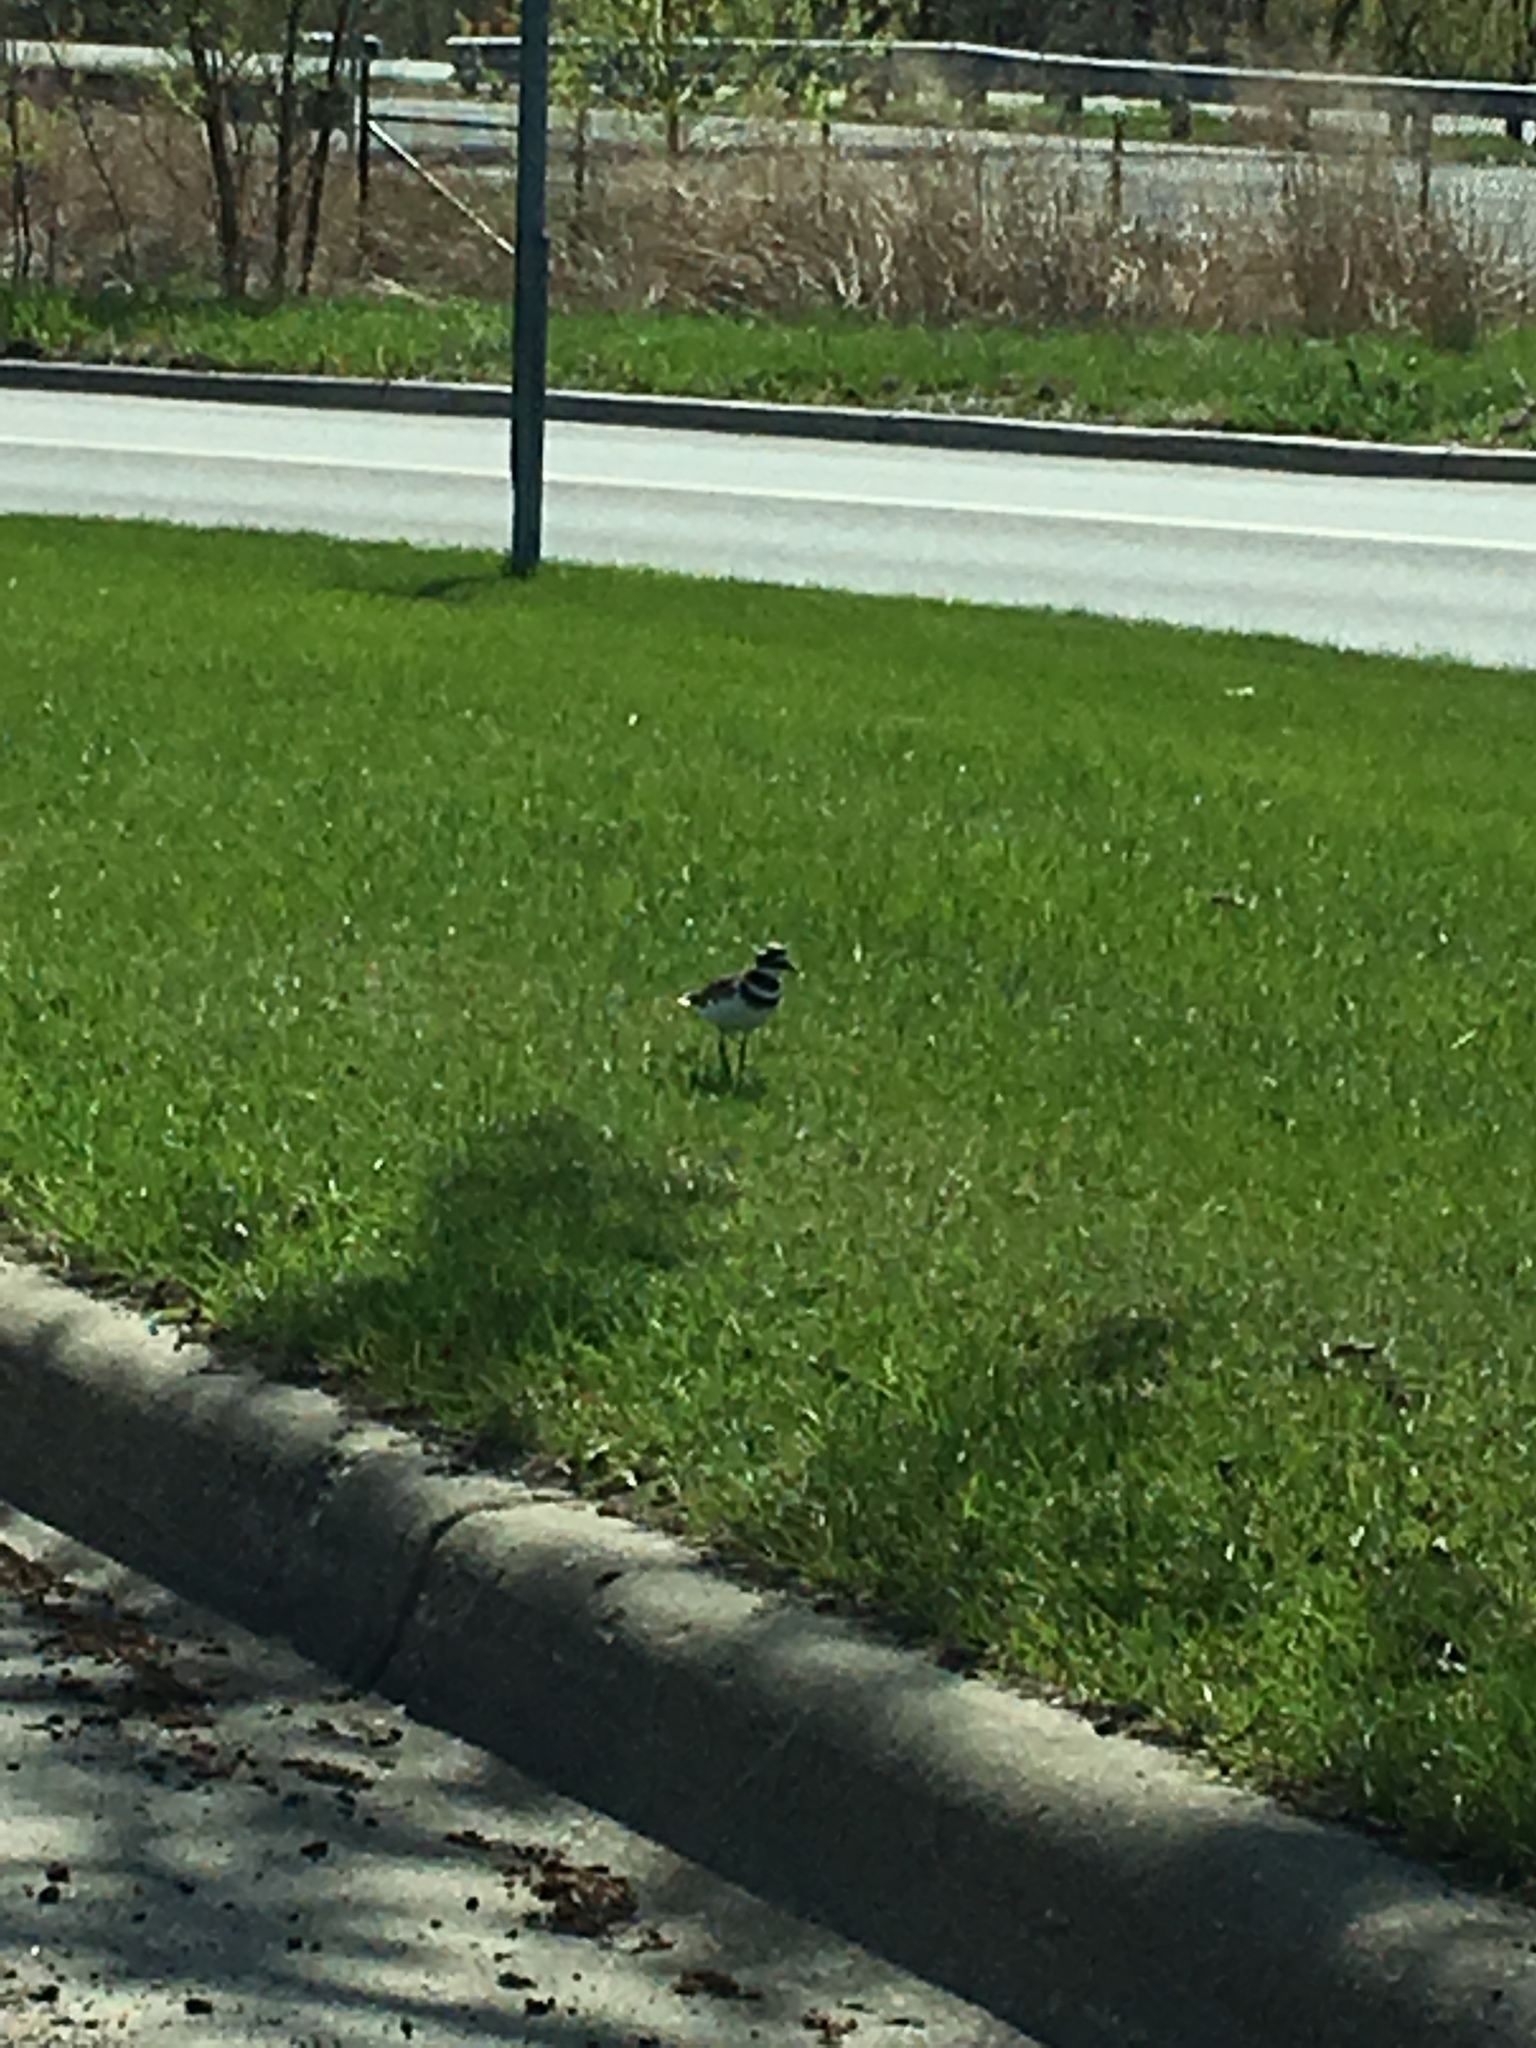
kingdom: Animalia
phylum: Chordata
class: Aves
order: Charadriiformes
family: Charadriidae
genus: Charadrius
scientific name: Charadrius vociferus
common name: Killdeer
